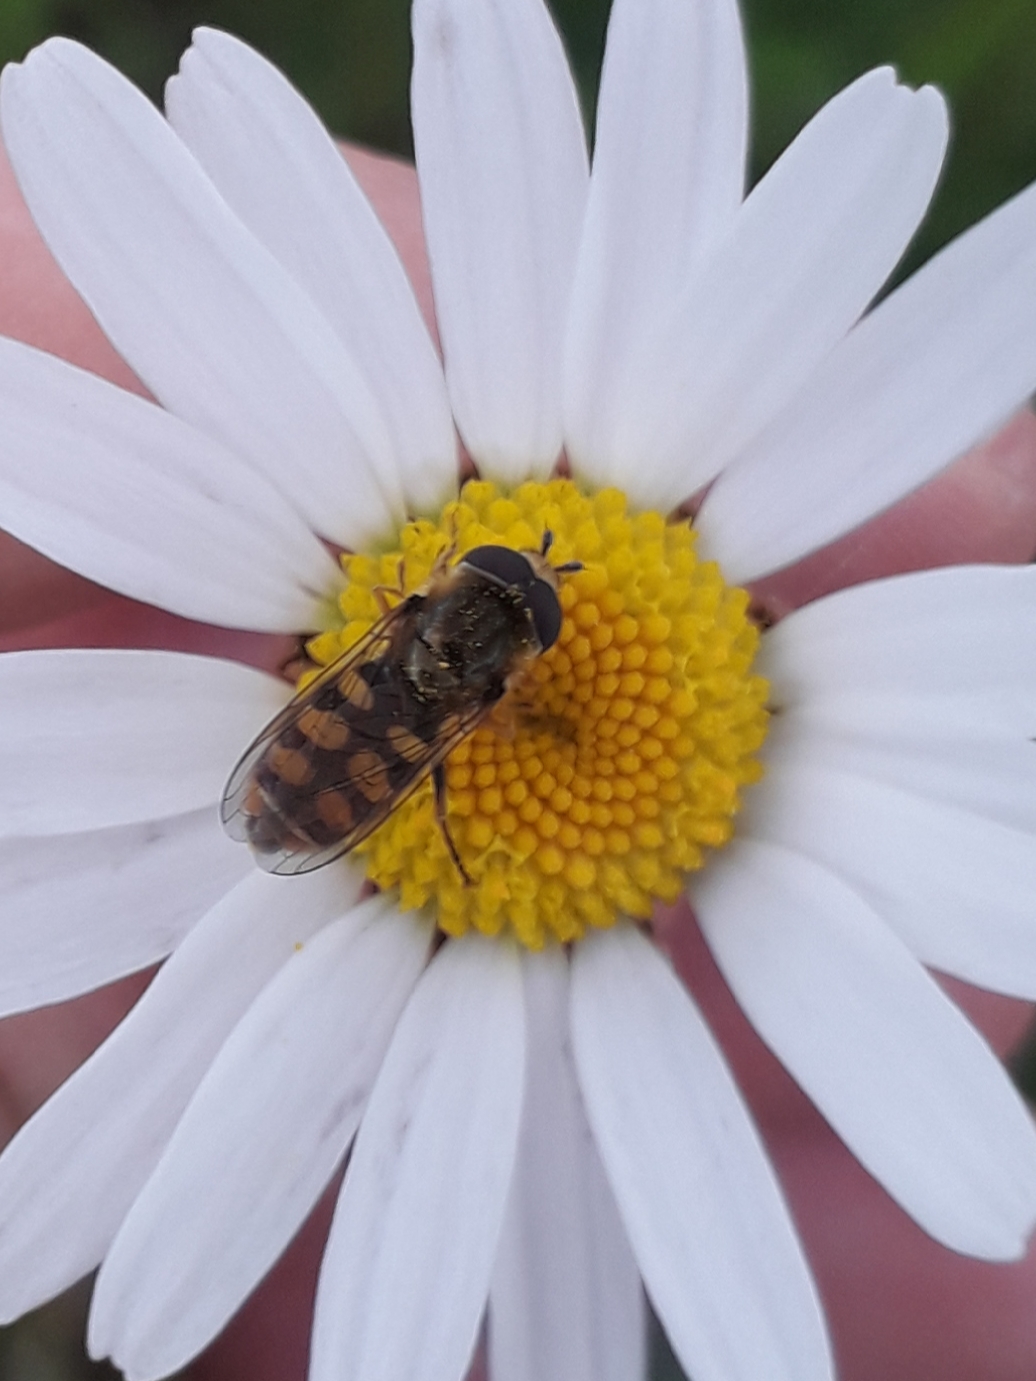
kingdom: Animalia
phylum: Arthropoda
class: Insecta
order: Diptera
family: Syrphidae
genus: Eupeodes
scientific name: Eupeodes corollae
